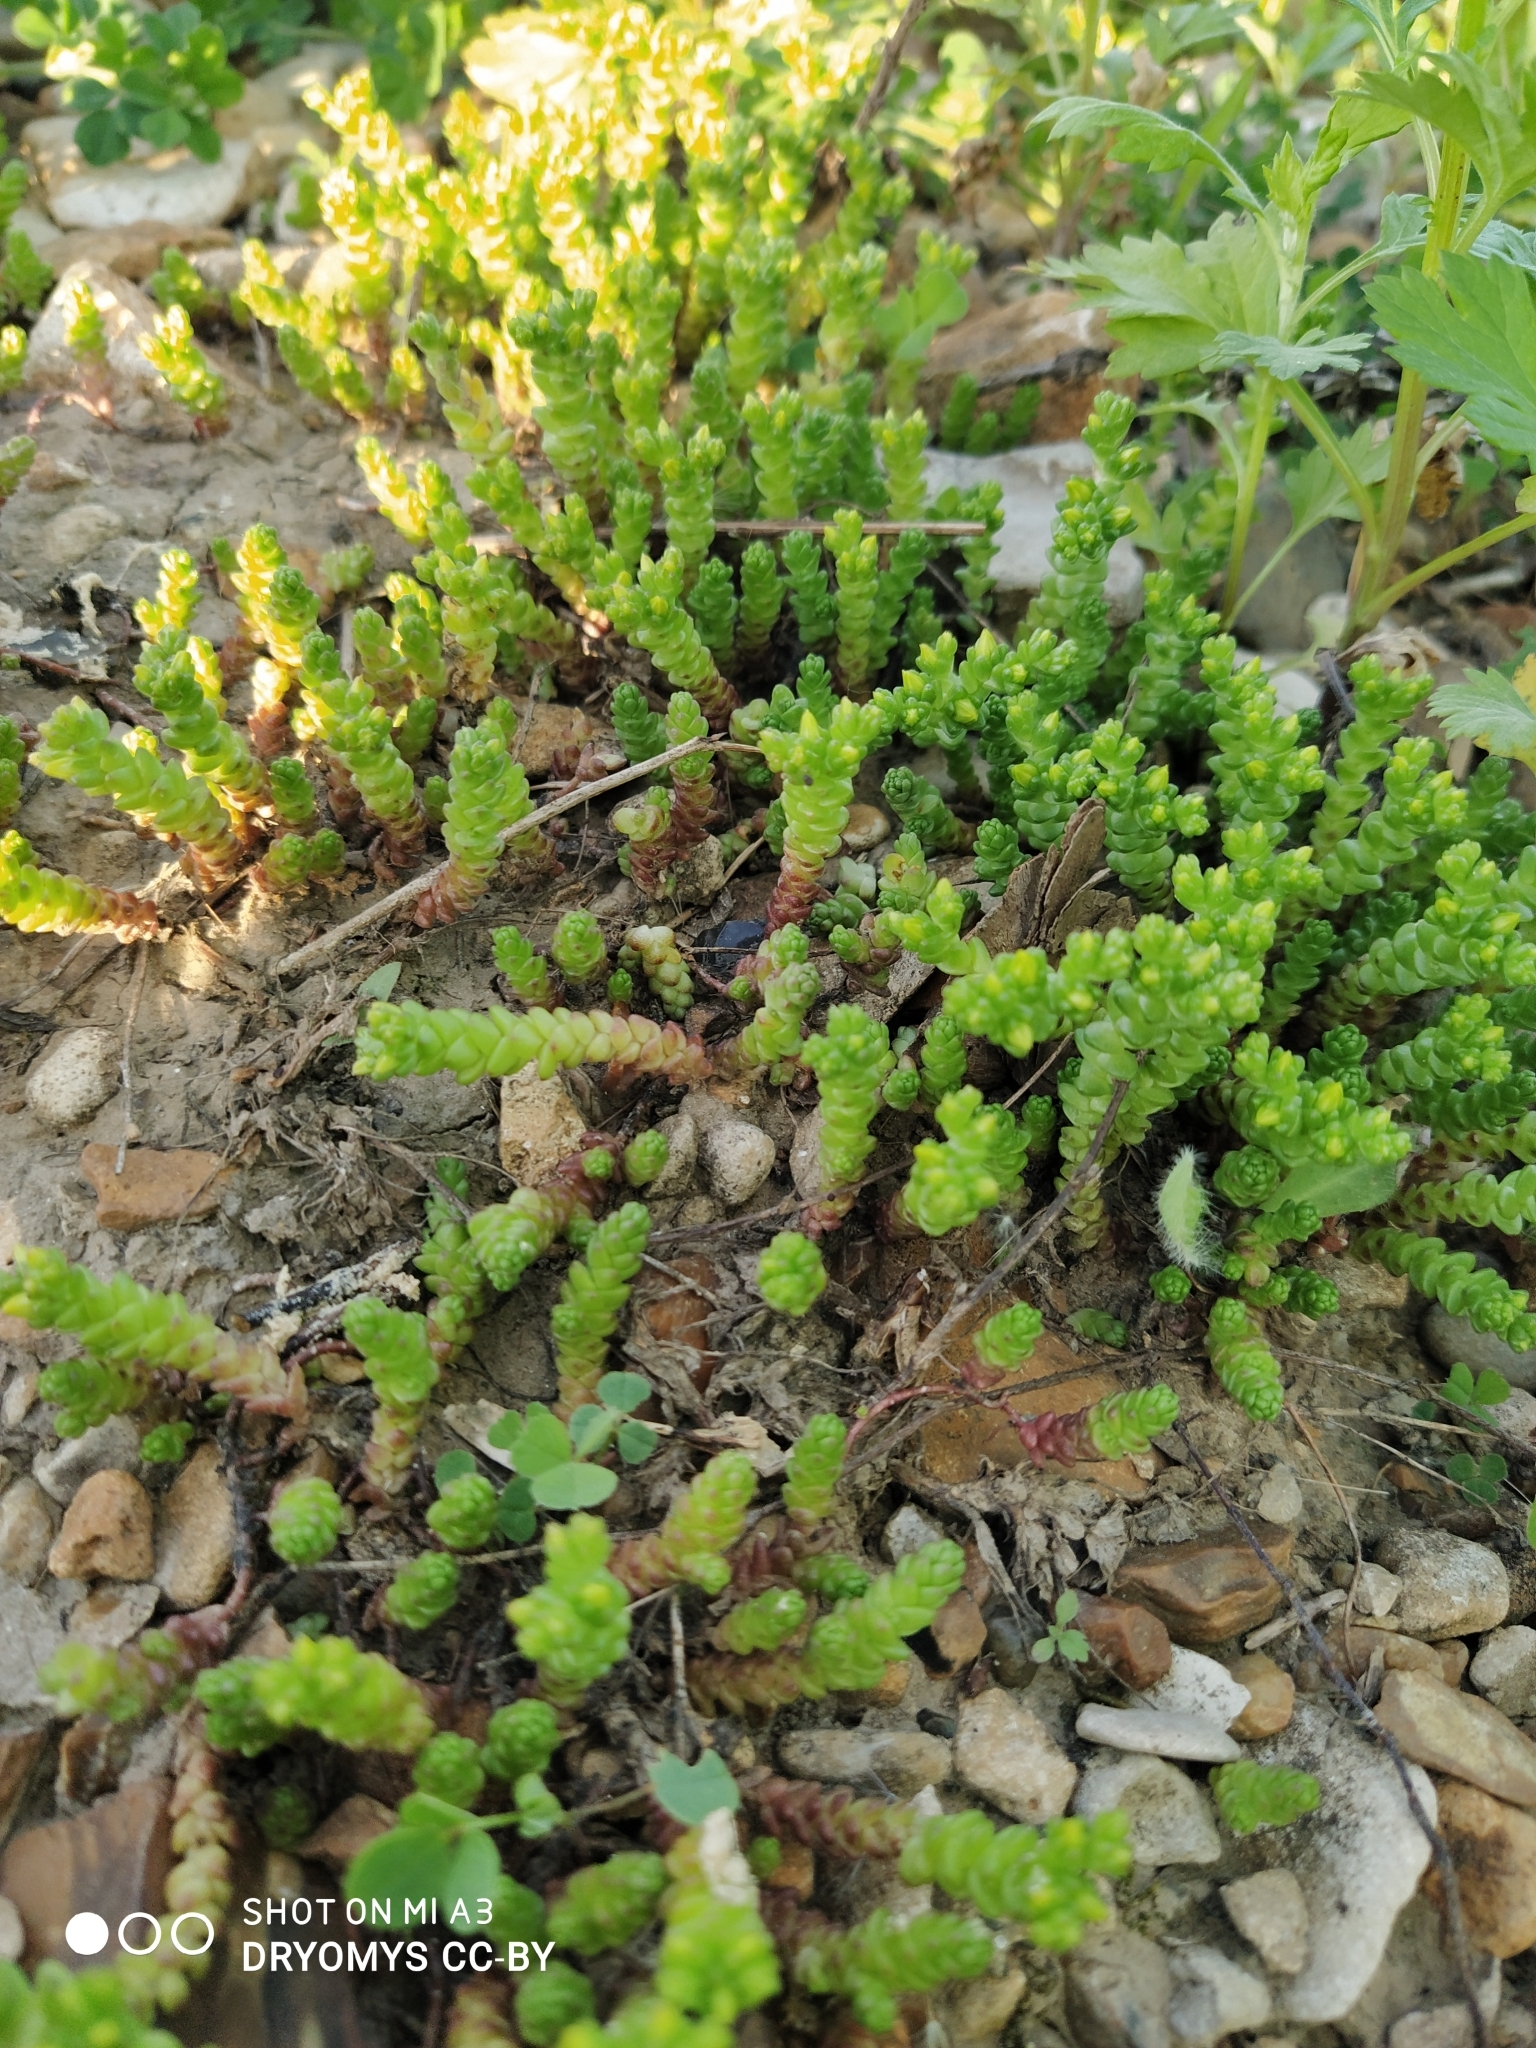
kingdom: Plantae
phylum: Tracheophyta
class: Magnoliopsida
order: Saxifragales
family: Crassulaceae
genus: Sedum
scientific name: Sedum acre
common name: Biting stonecrop
